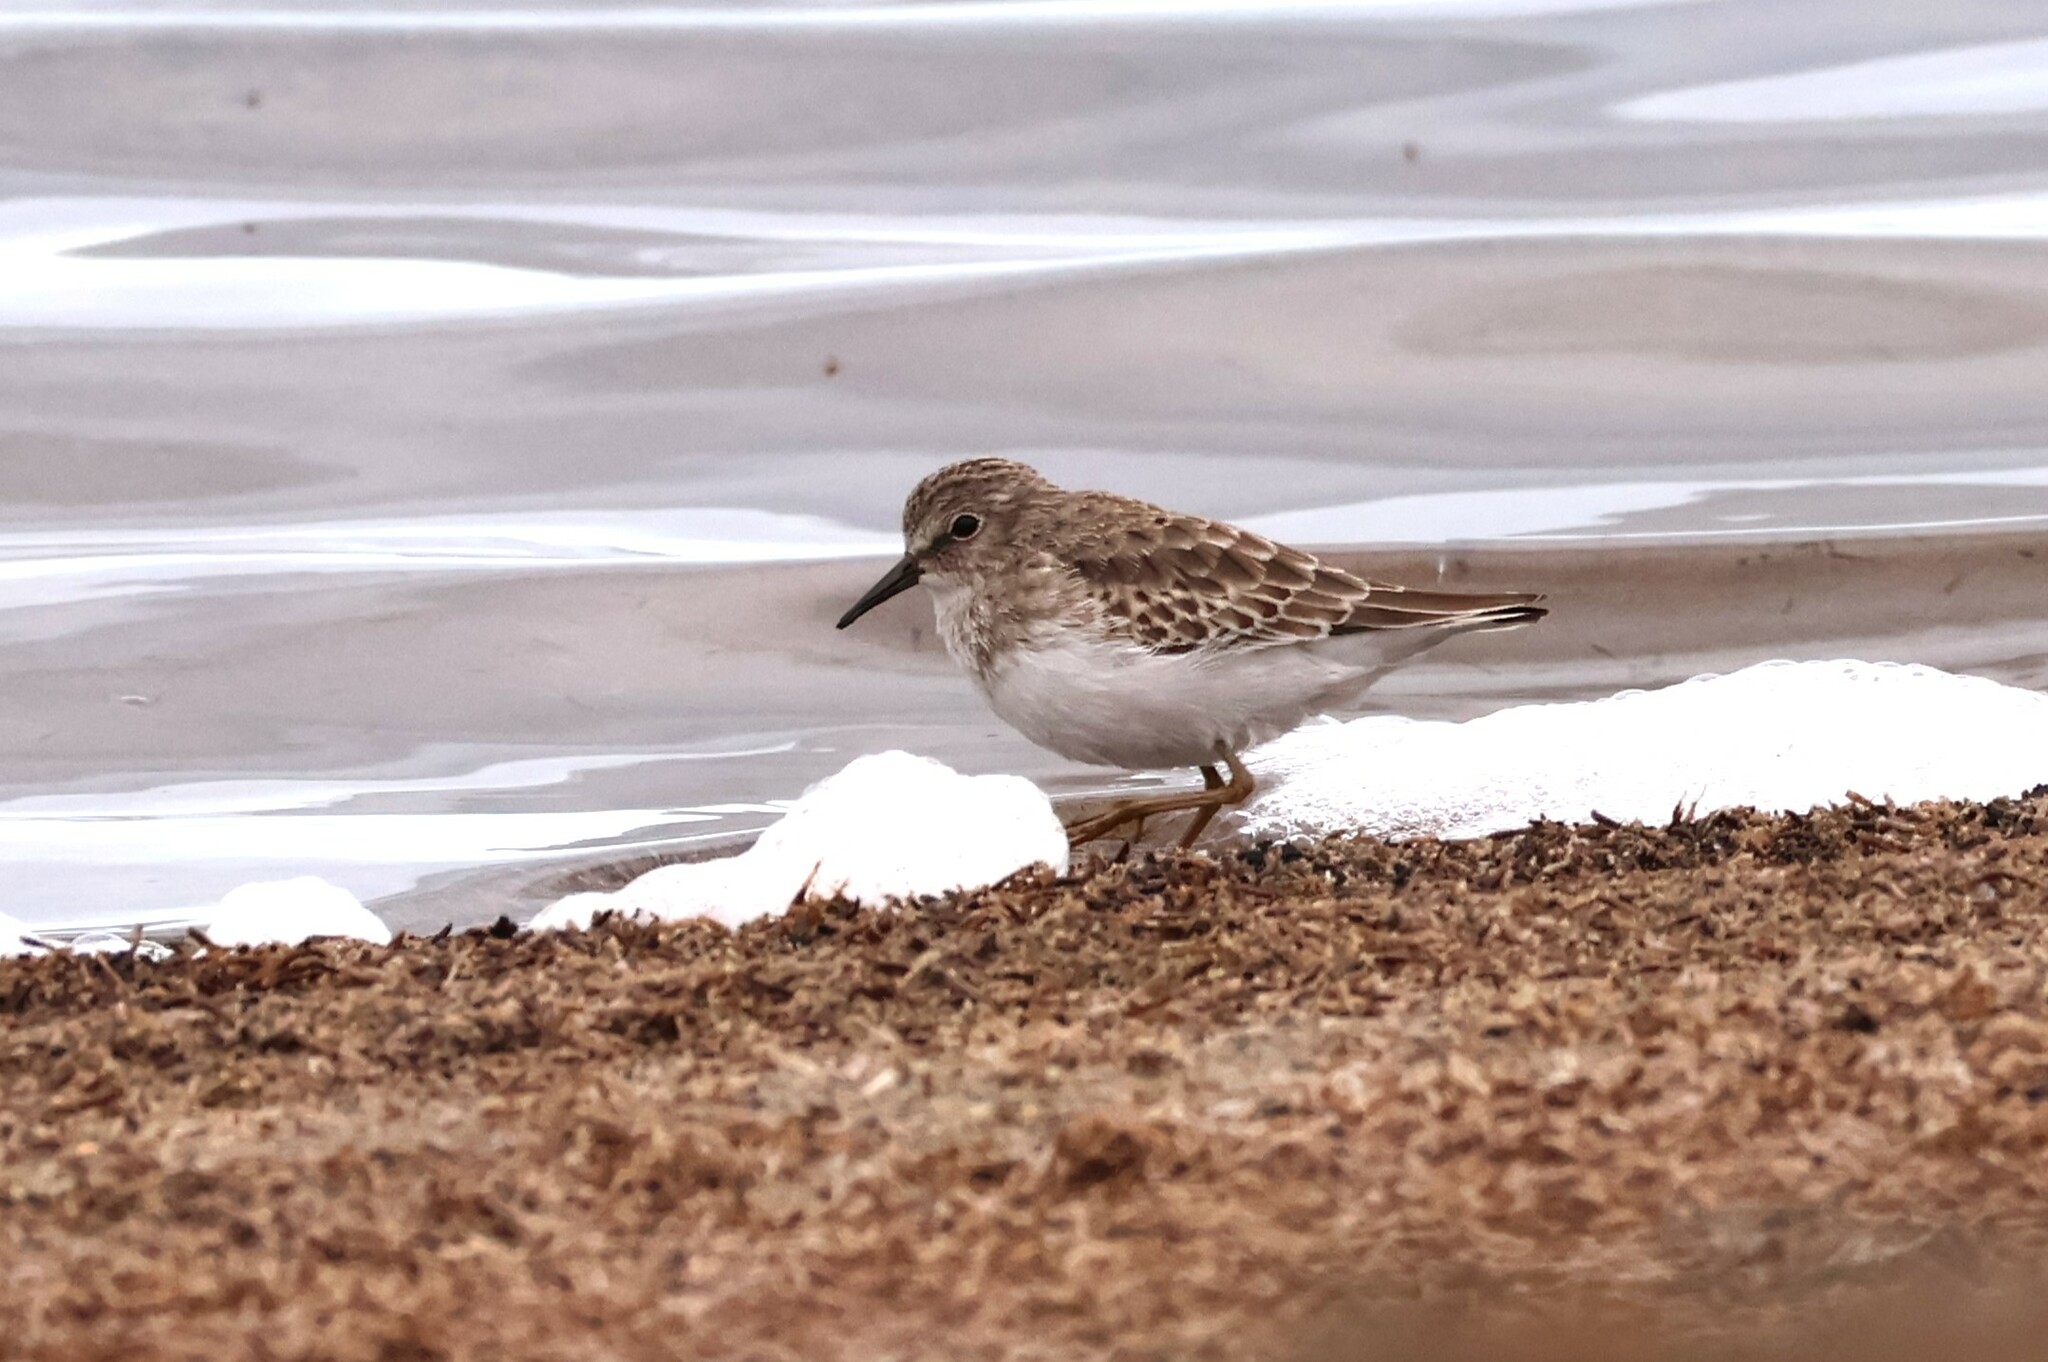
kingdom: Animalia
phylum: Chordata
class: Aves
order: Charadriiformes
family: Scolopacidae
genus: Calidris
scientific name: Calidris minutilla
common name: Least sandpiper
